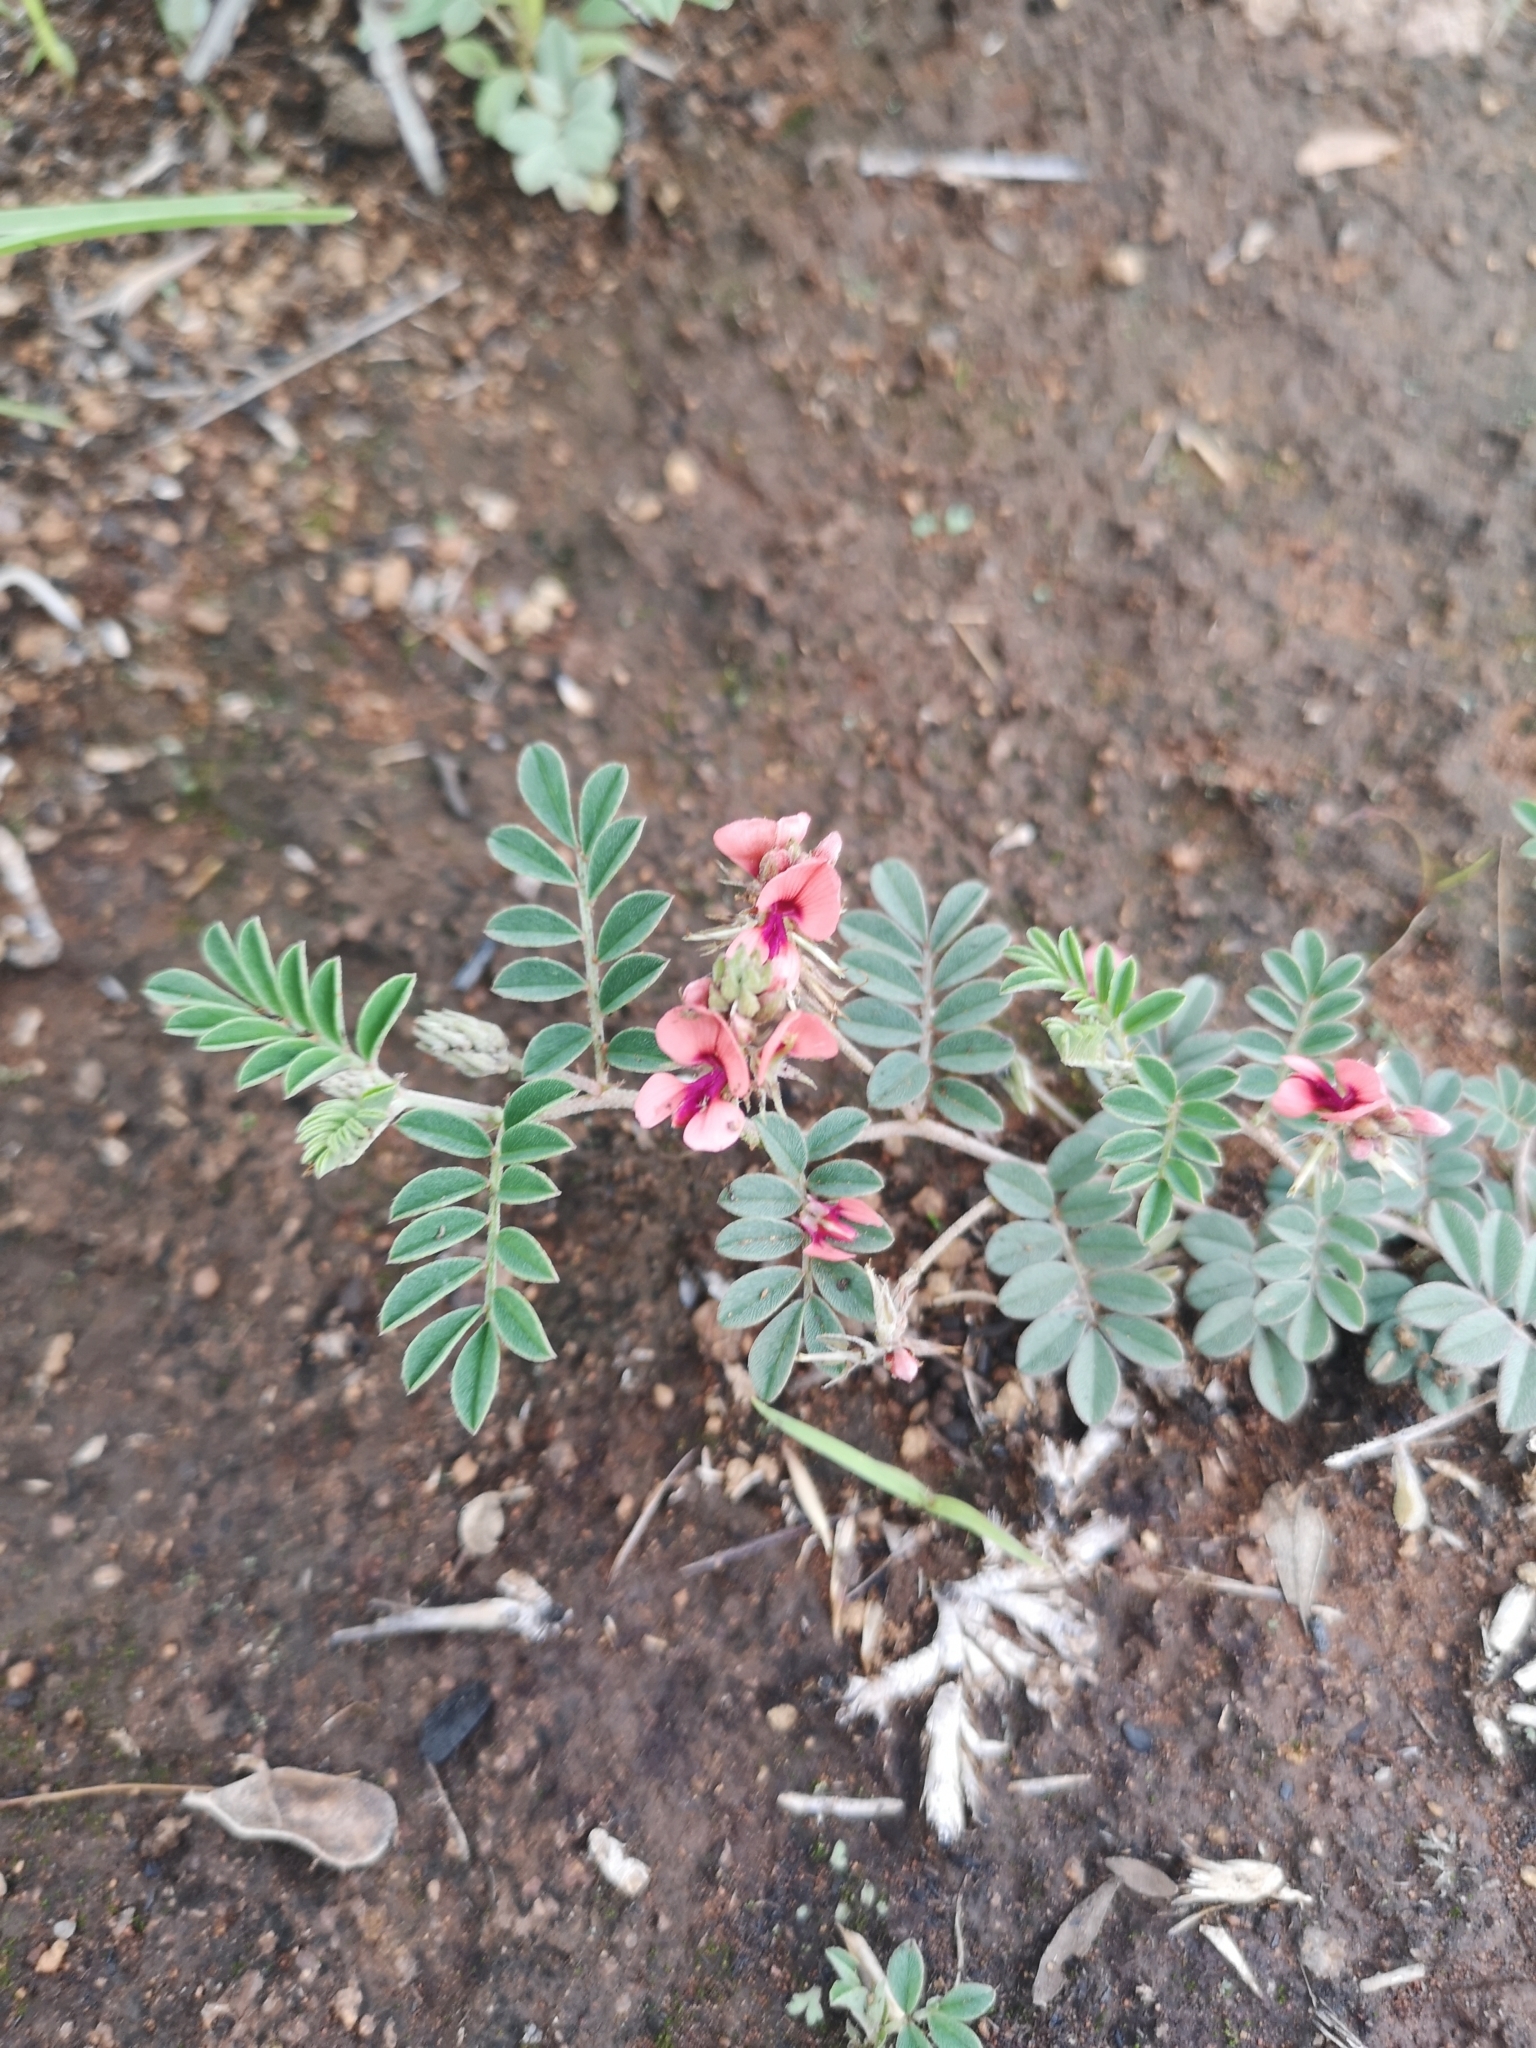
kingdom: Plantae
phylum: Tracheophyta
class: Magnoliopsida
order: Fabales
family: Fabaceae
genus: Indigofera
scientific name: Indigofera alternans
